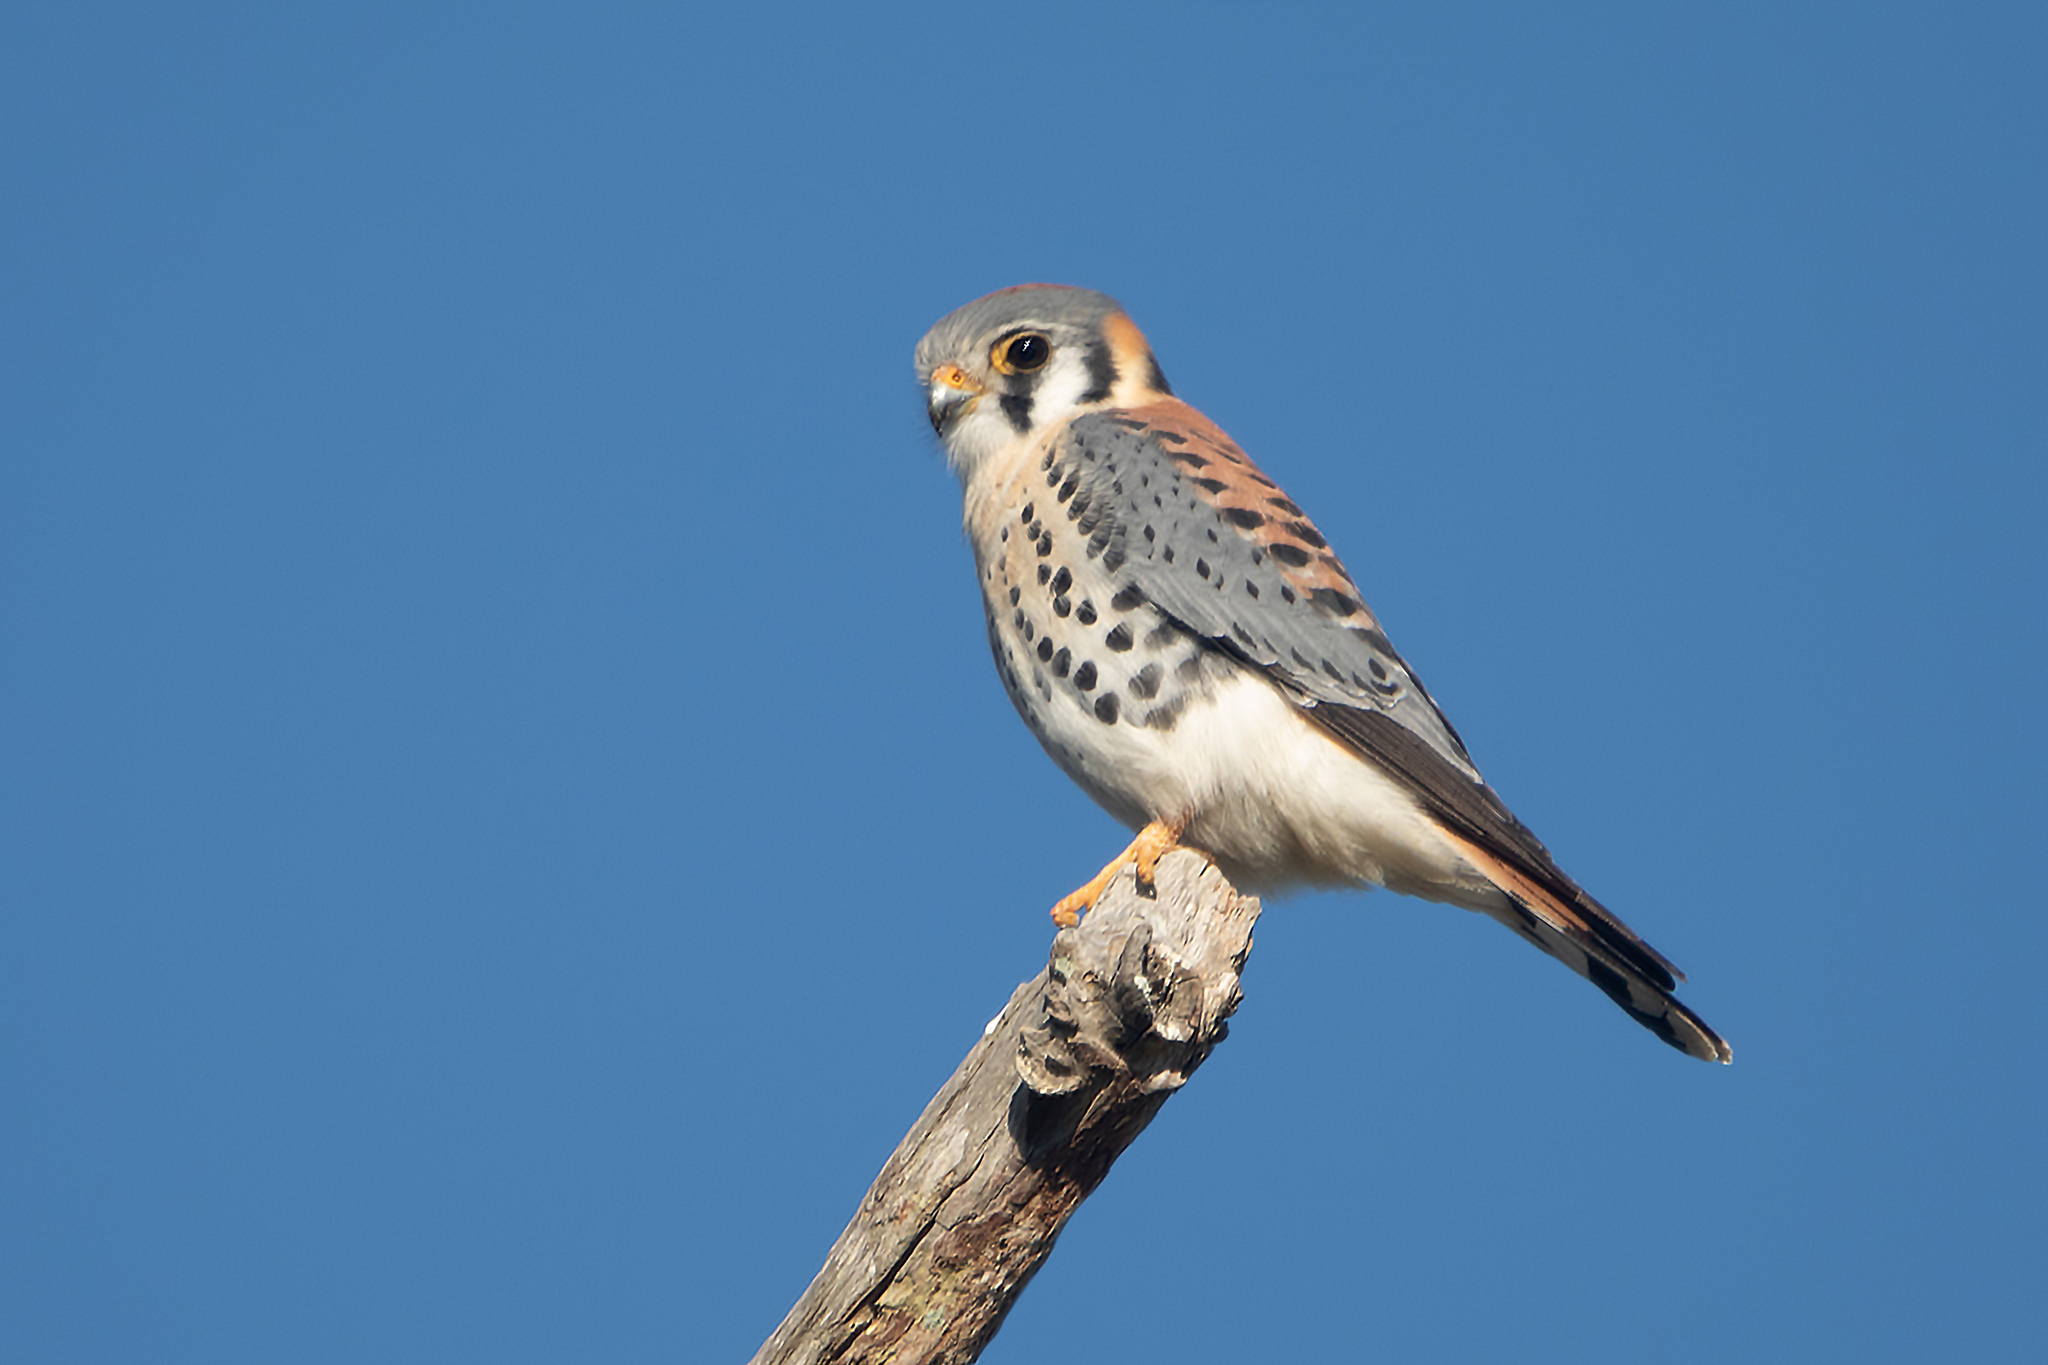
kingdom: Animalia
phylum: Chordata
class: Aves
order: Falconiformes
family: Falconidae
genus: Falco
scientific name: Falco sparverius
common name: American kestrel
